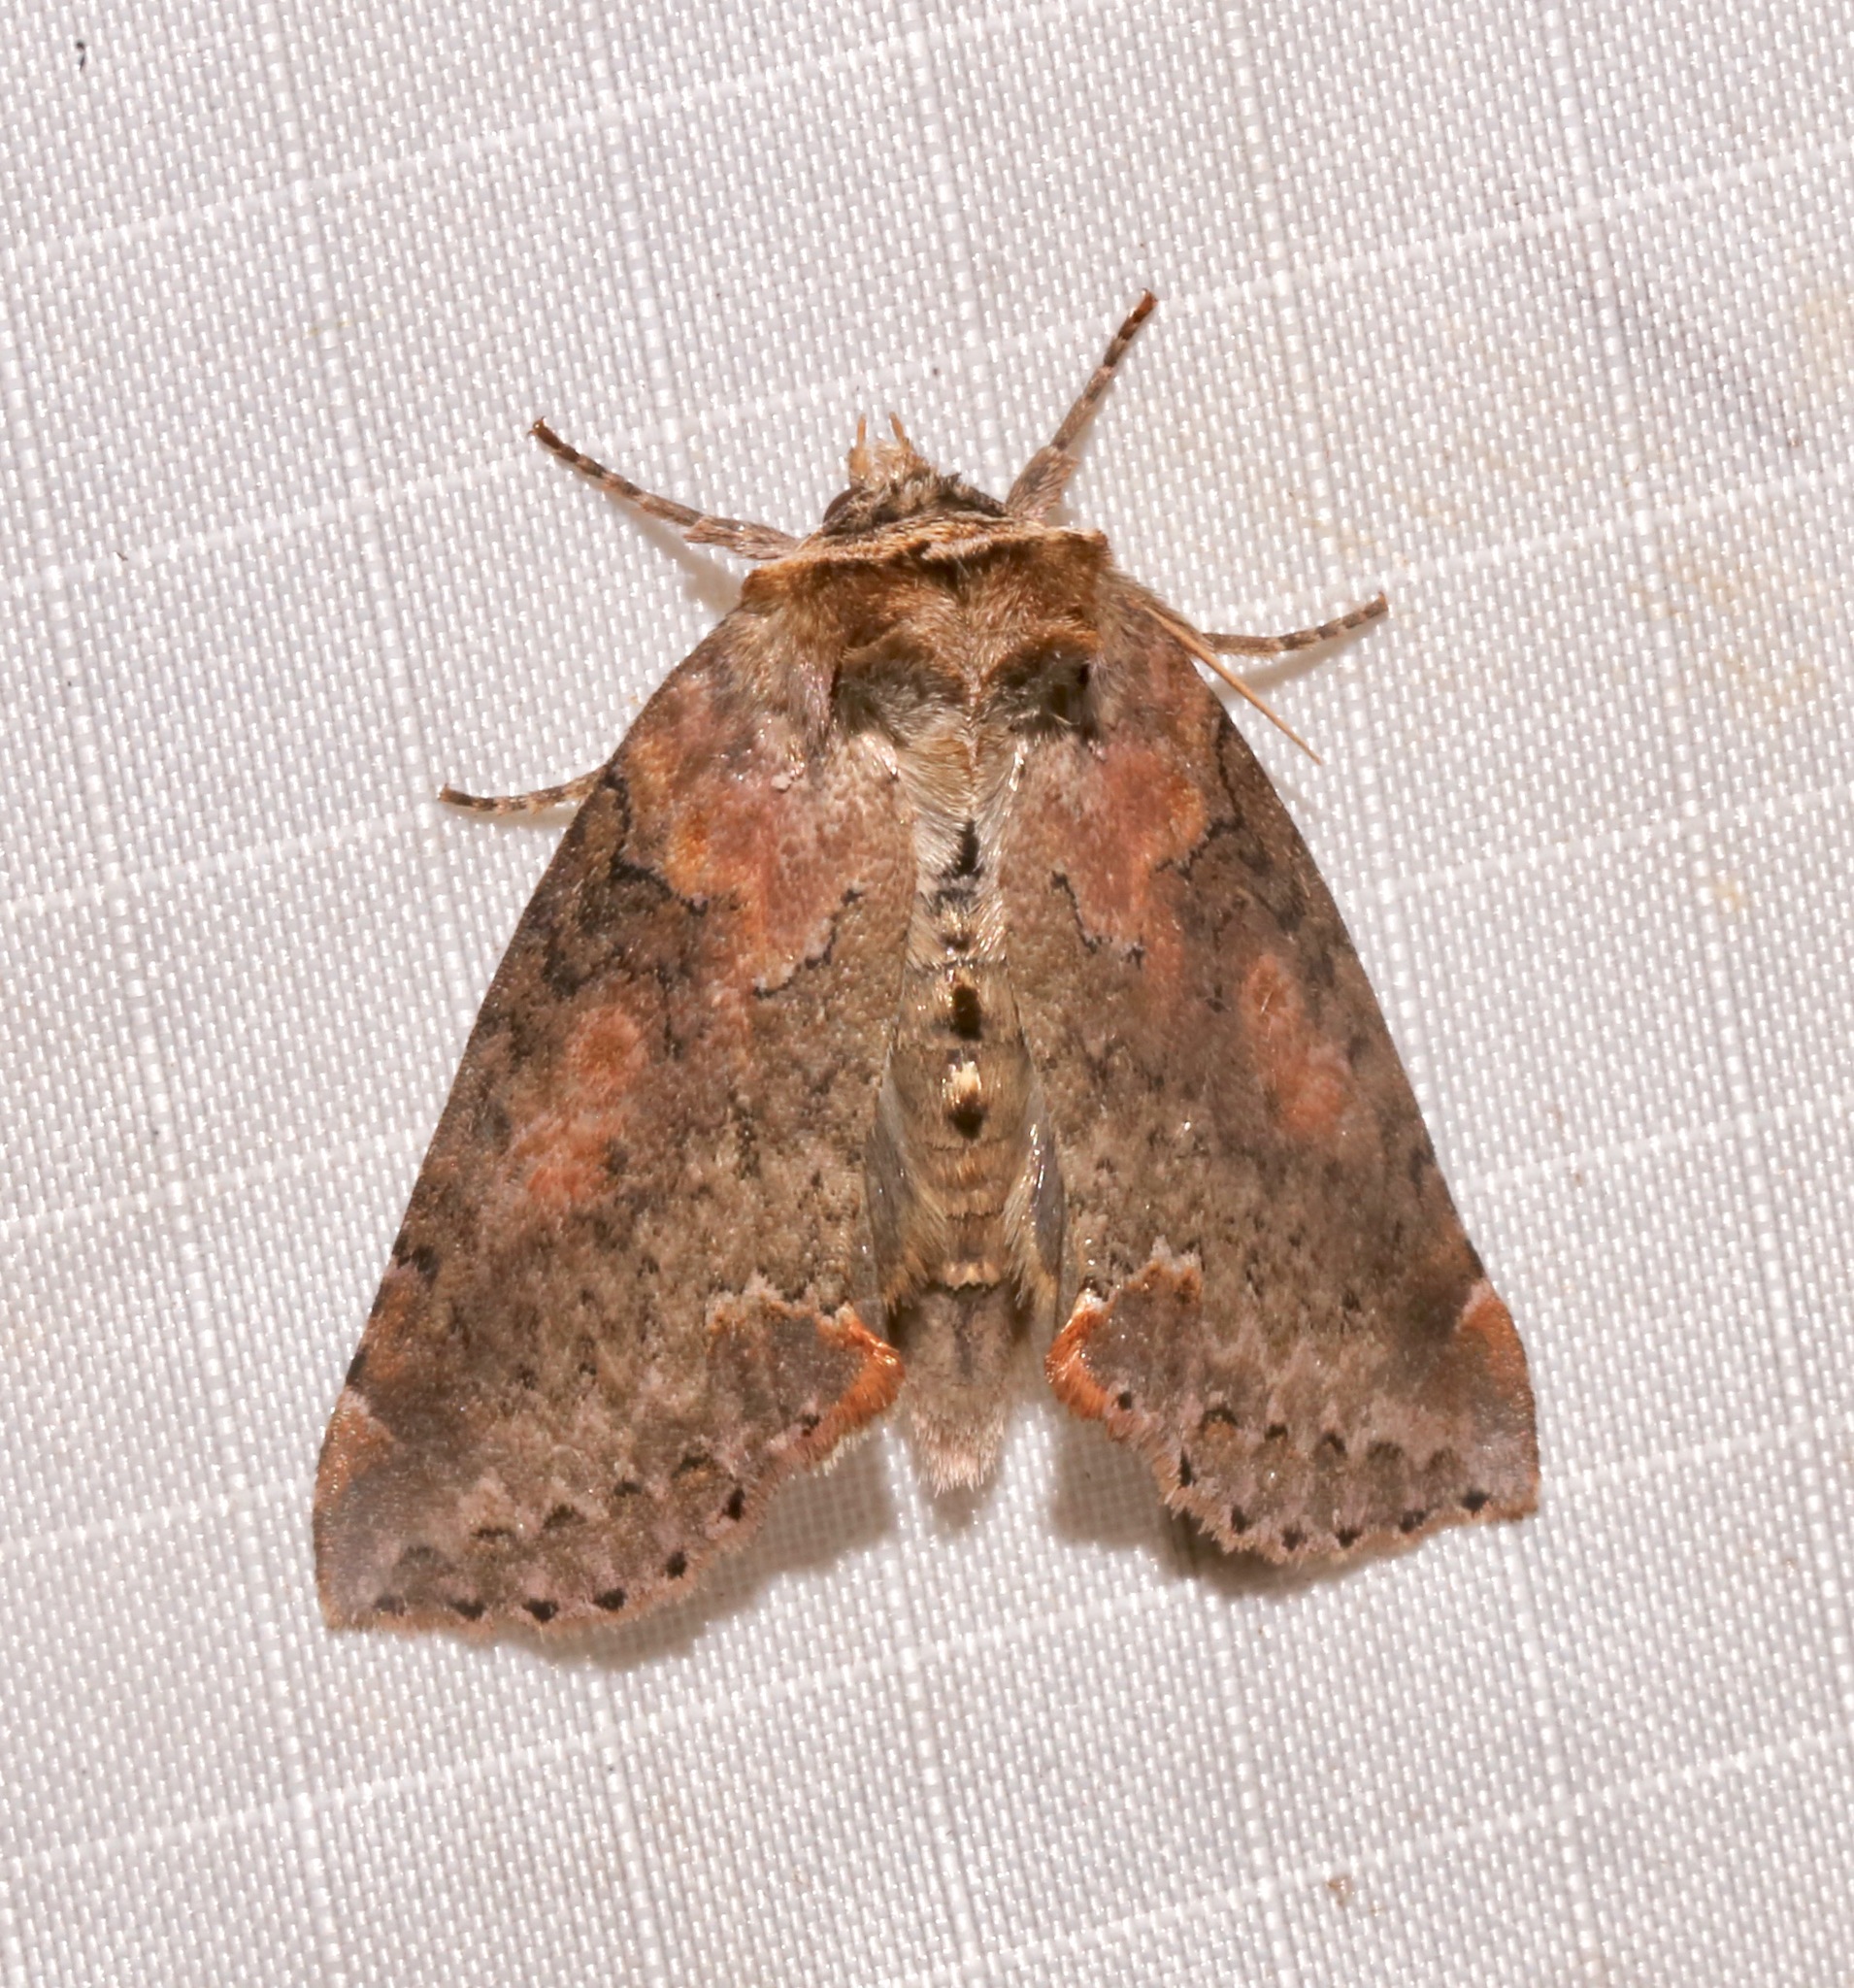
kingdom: Animalia
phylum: Arthropoda
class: Insecta
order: Lepidoptera
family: Drepanidae
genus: Pseudothyatira
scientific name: Pseudothyatira cymatophoroides
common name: Tufted thyatirid moth
